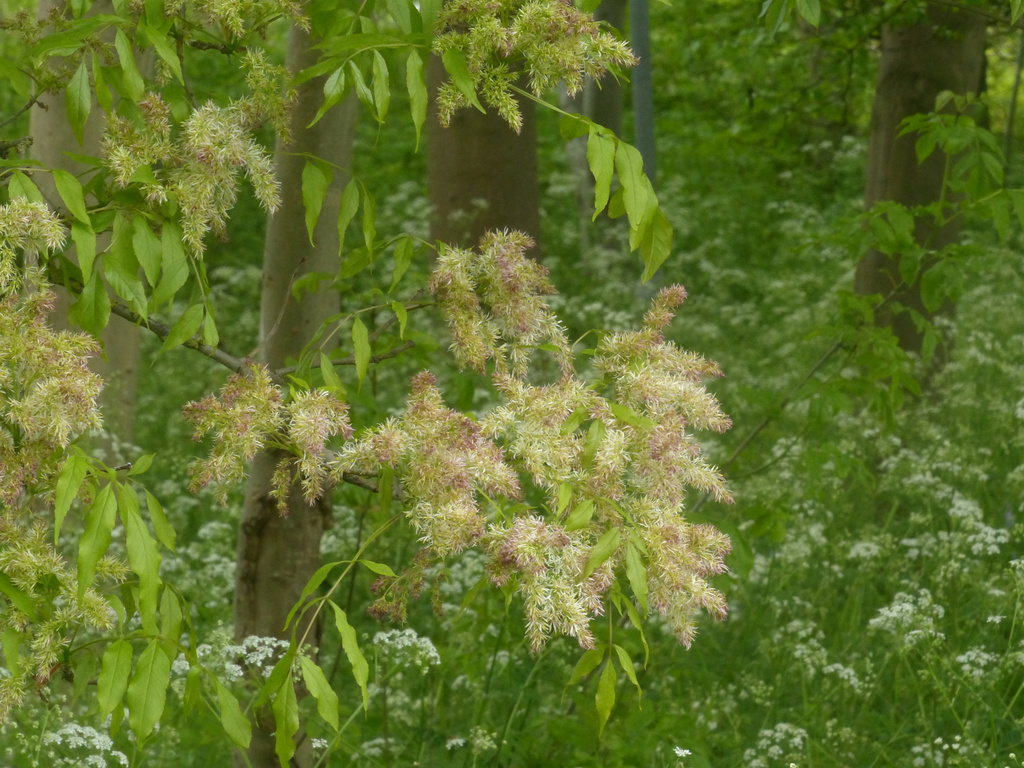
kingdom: Plantae
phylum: Tracheophyta
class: Magnoliopsida
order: Lamiales
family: Oleaceae
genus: Fraxinus
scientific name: Fraxinus ornus
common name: Manna ash
